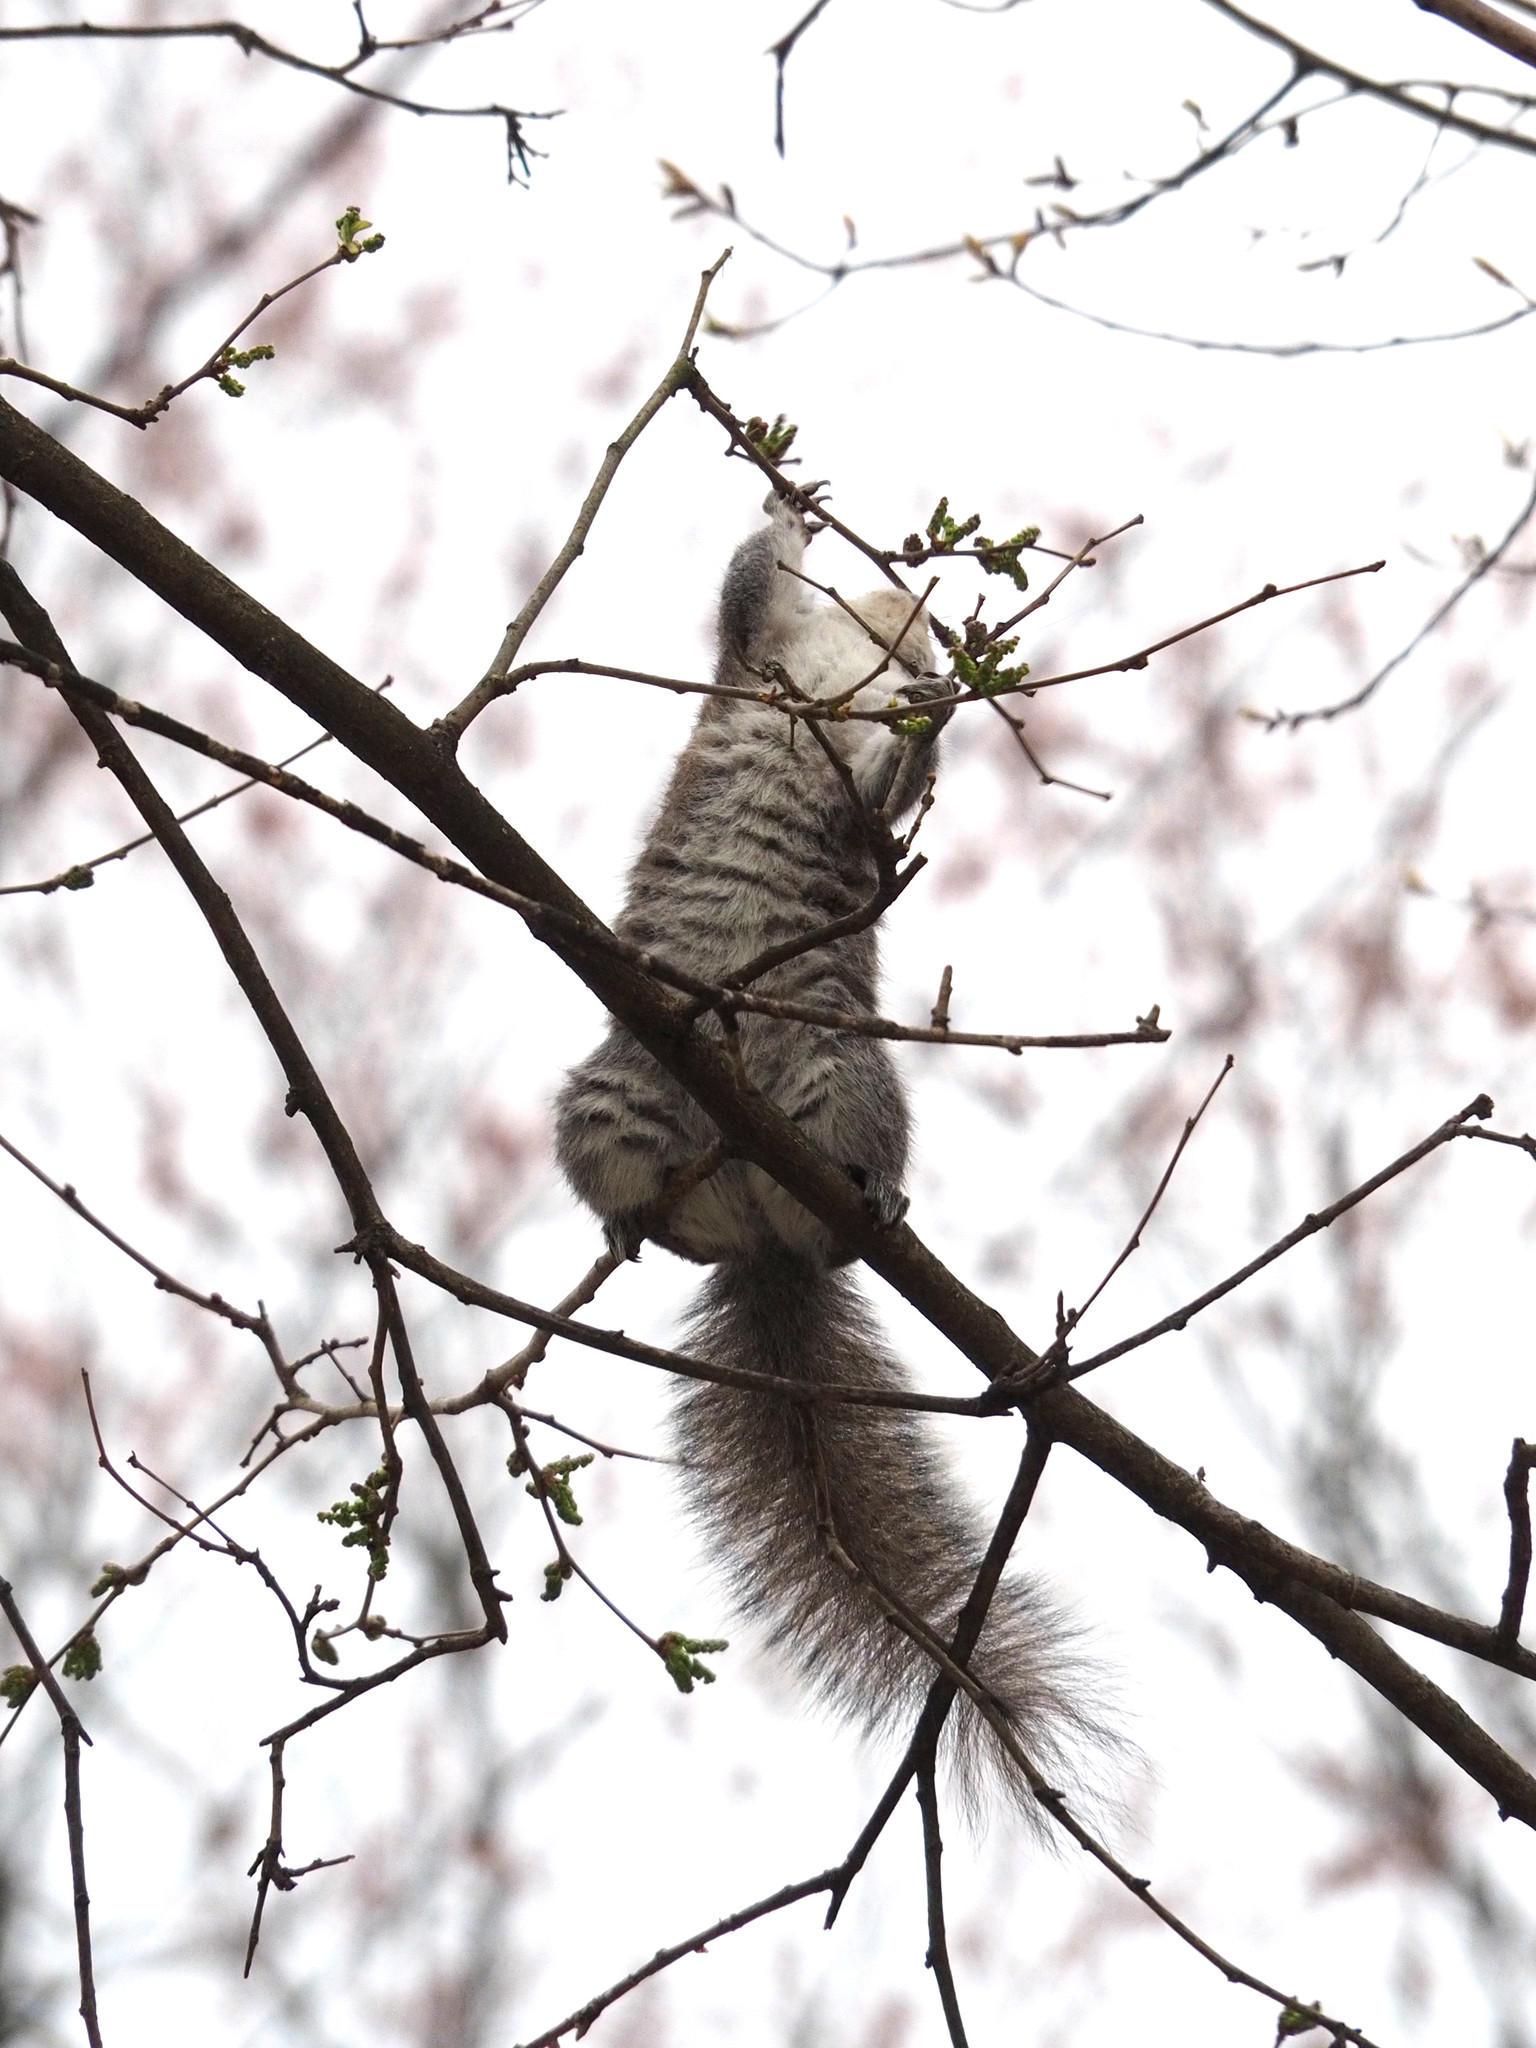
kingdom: Animalia
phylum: Chordata
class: Mammalia
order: Rodentia
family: Sciuridae
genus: Sciurus
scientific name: Sciurus carolinensis
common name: Eastern gray squirrel
